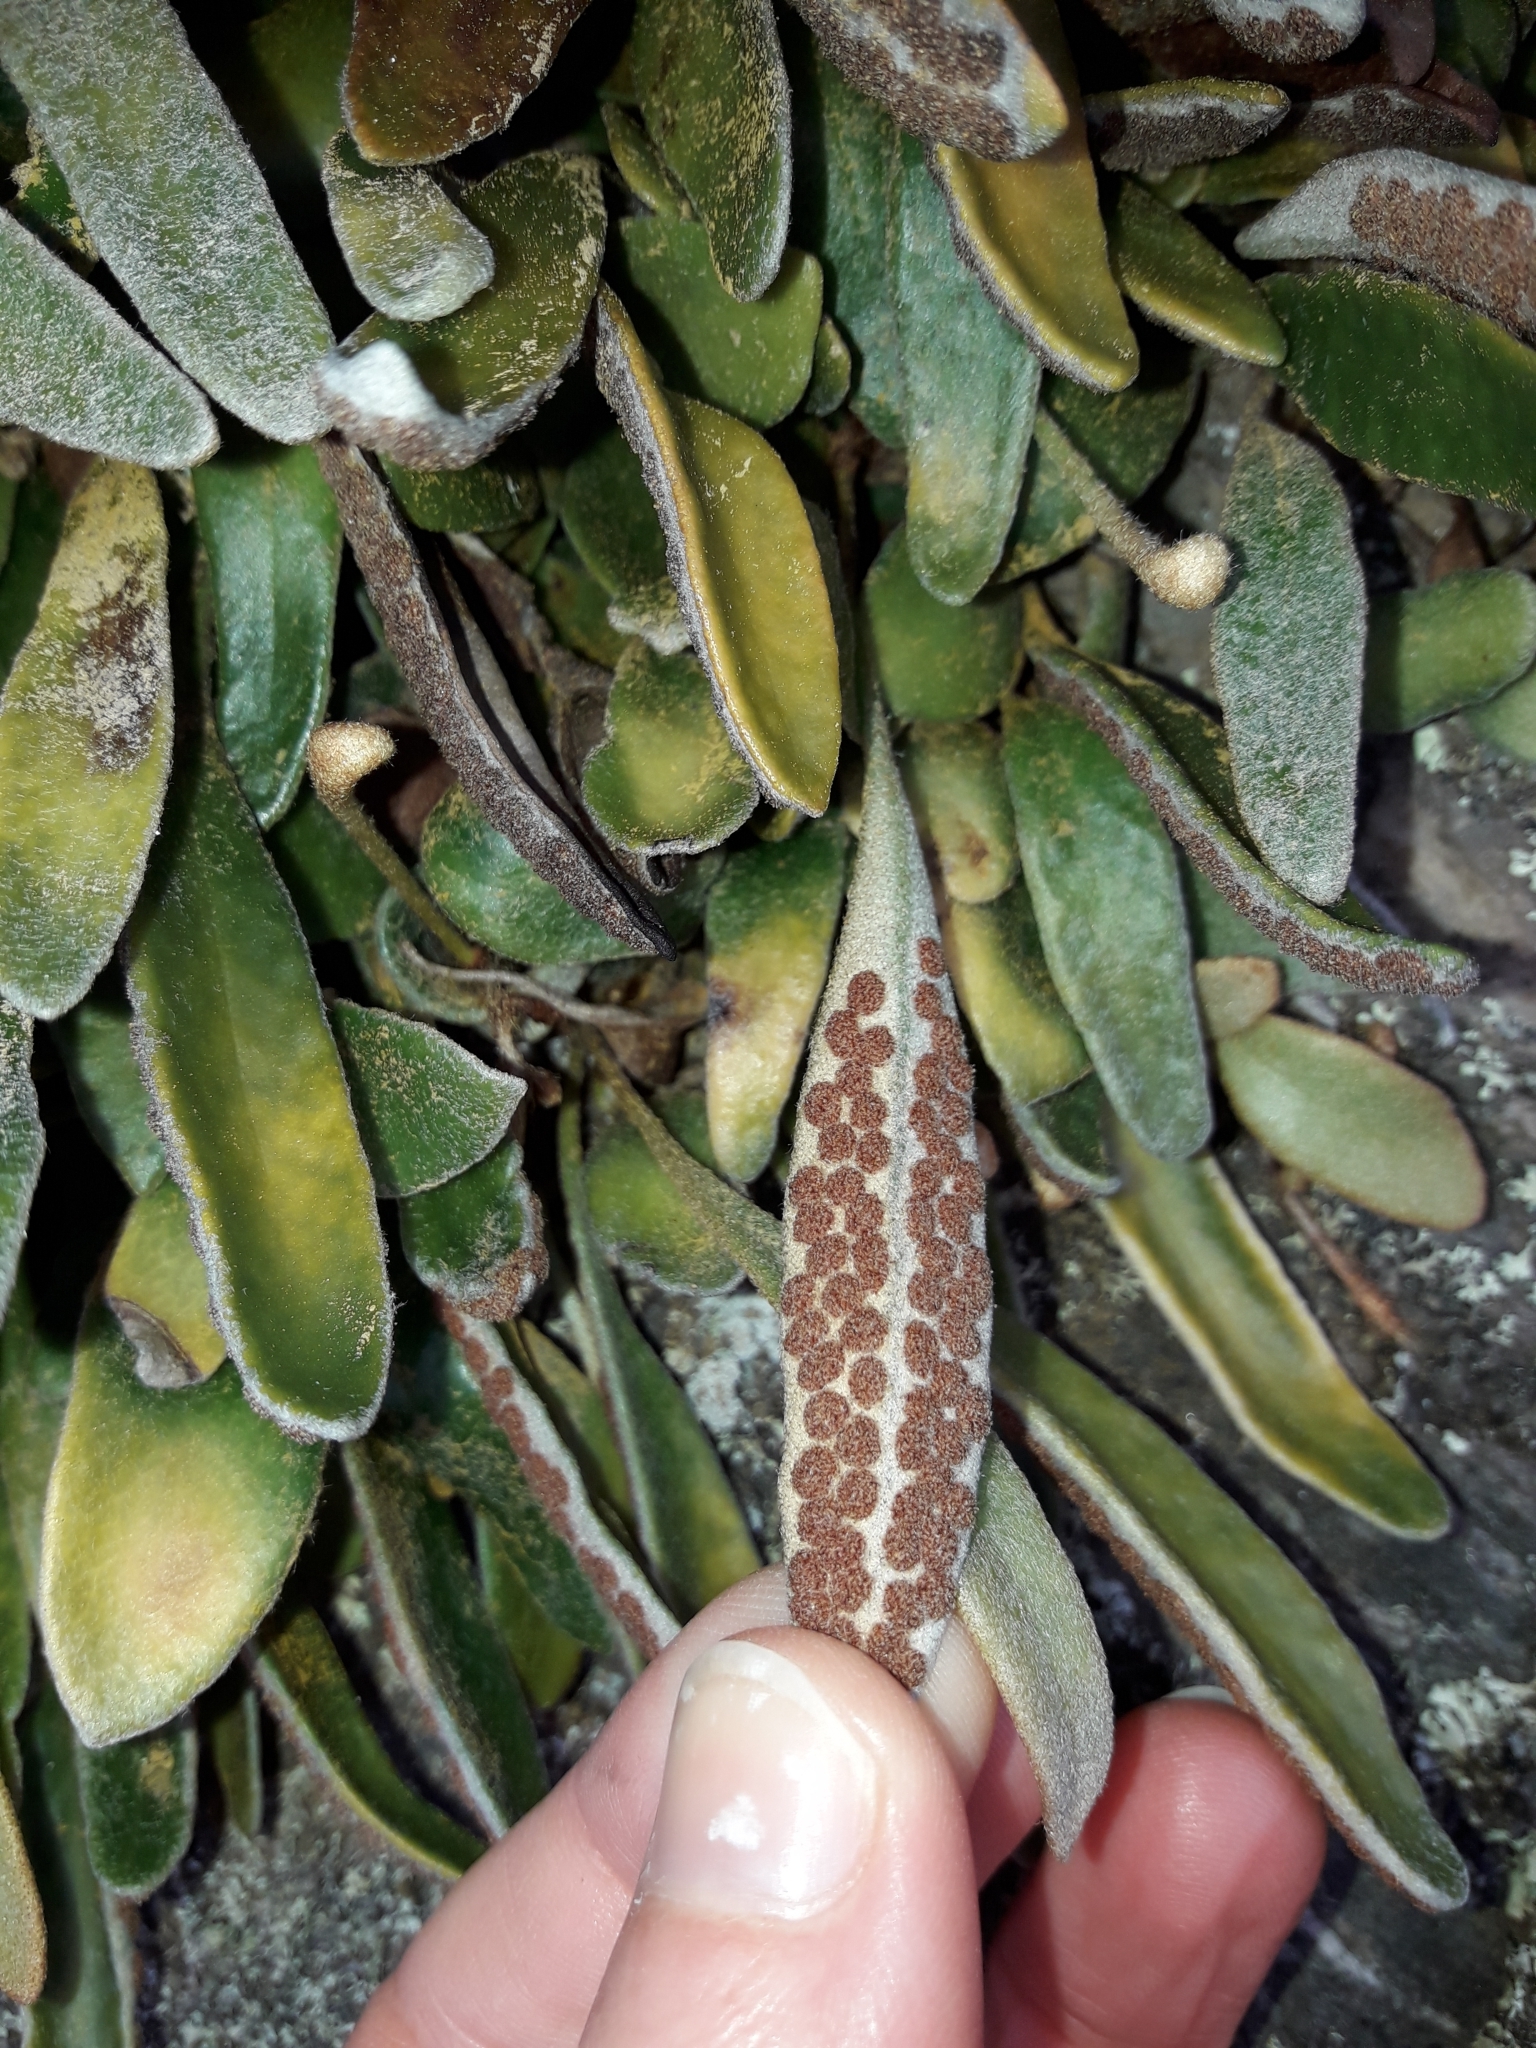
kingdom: Plantae
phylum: Tracheophyta
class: Polypodiopsida
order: Polypodiales
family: Polypodiaceae
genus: Pyrrosia
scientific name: Pyrrosia eleagnifolia
